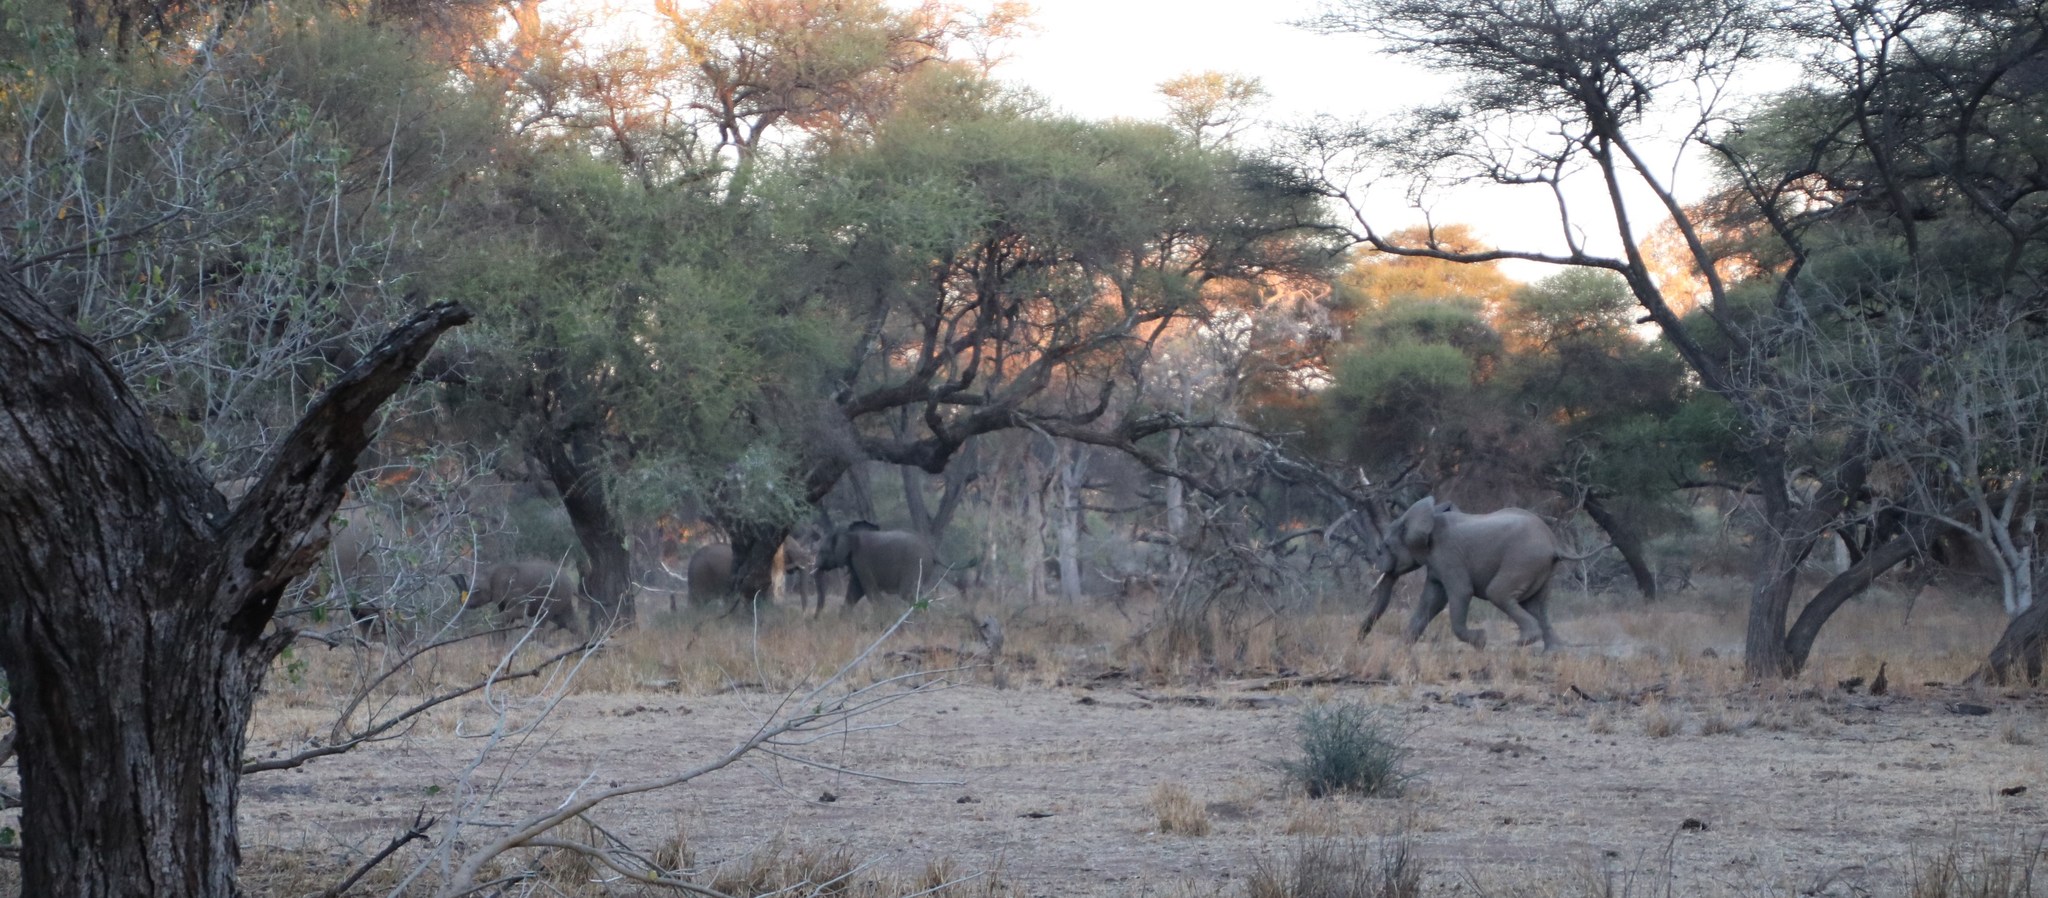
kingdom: Animalia
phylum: Chordata
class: Mammalia
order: Proboscidea
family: Elephantidae
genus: Loxodonta
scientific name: Loxodonta africana
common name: African elephant
